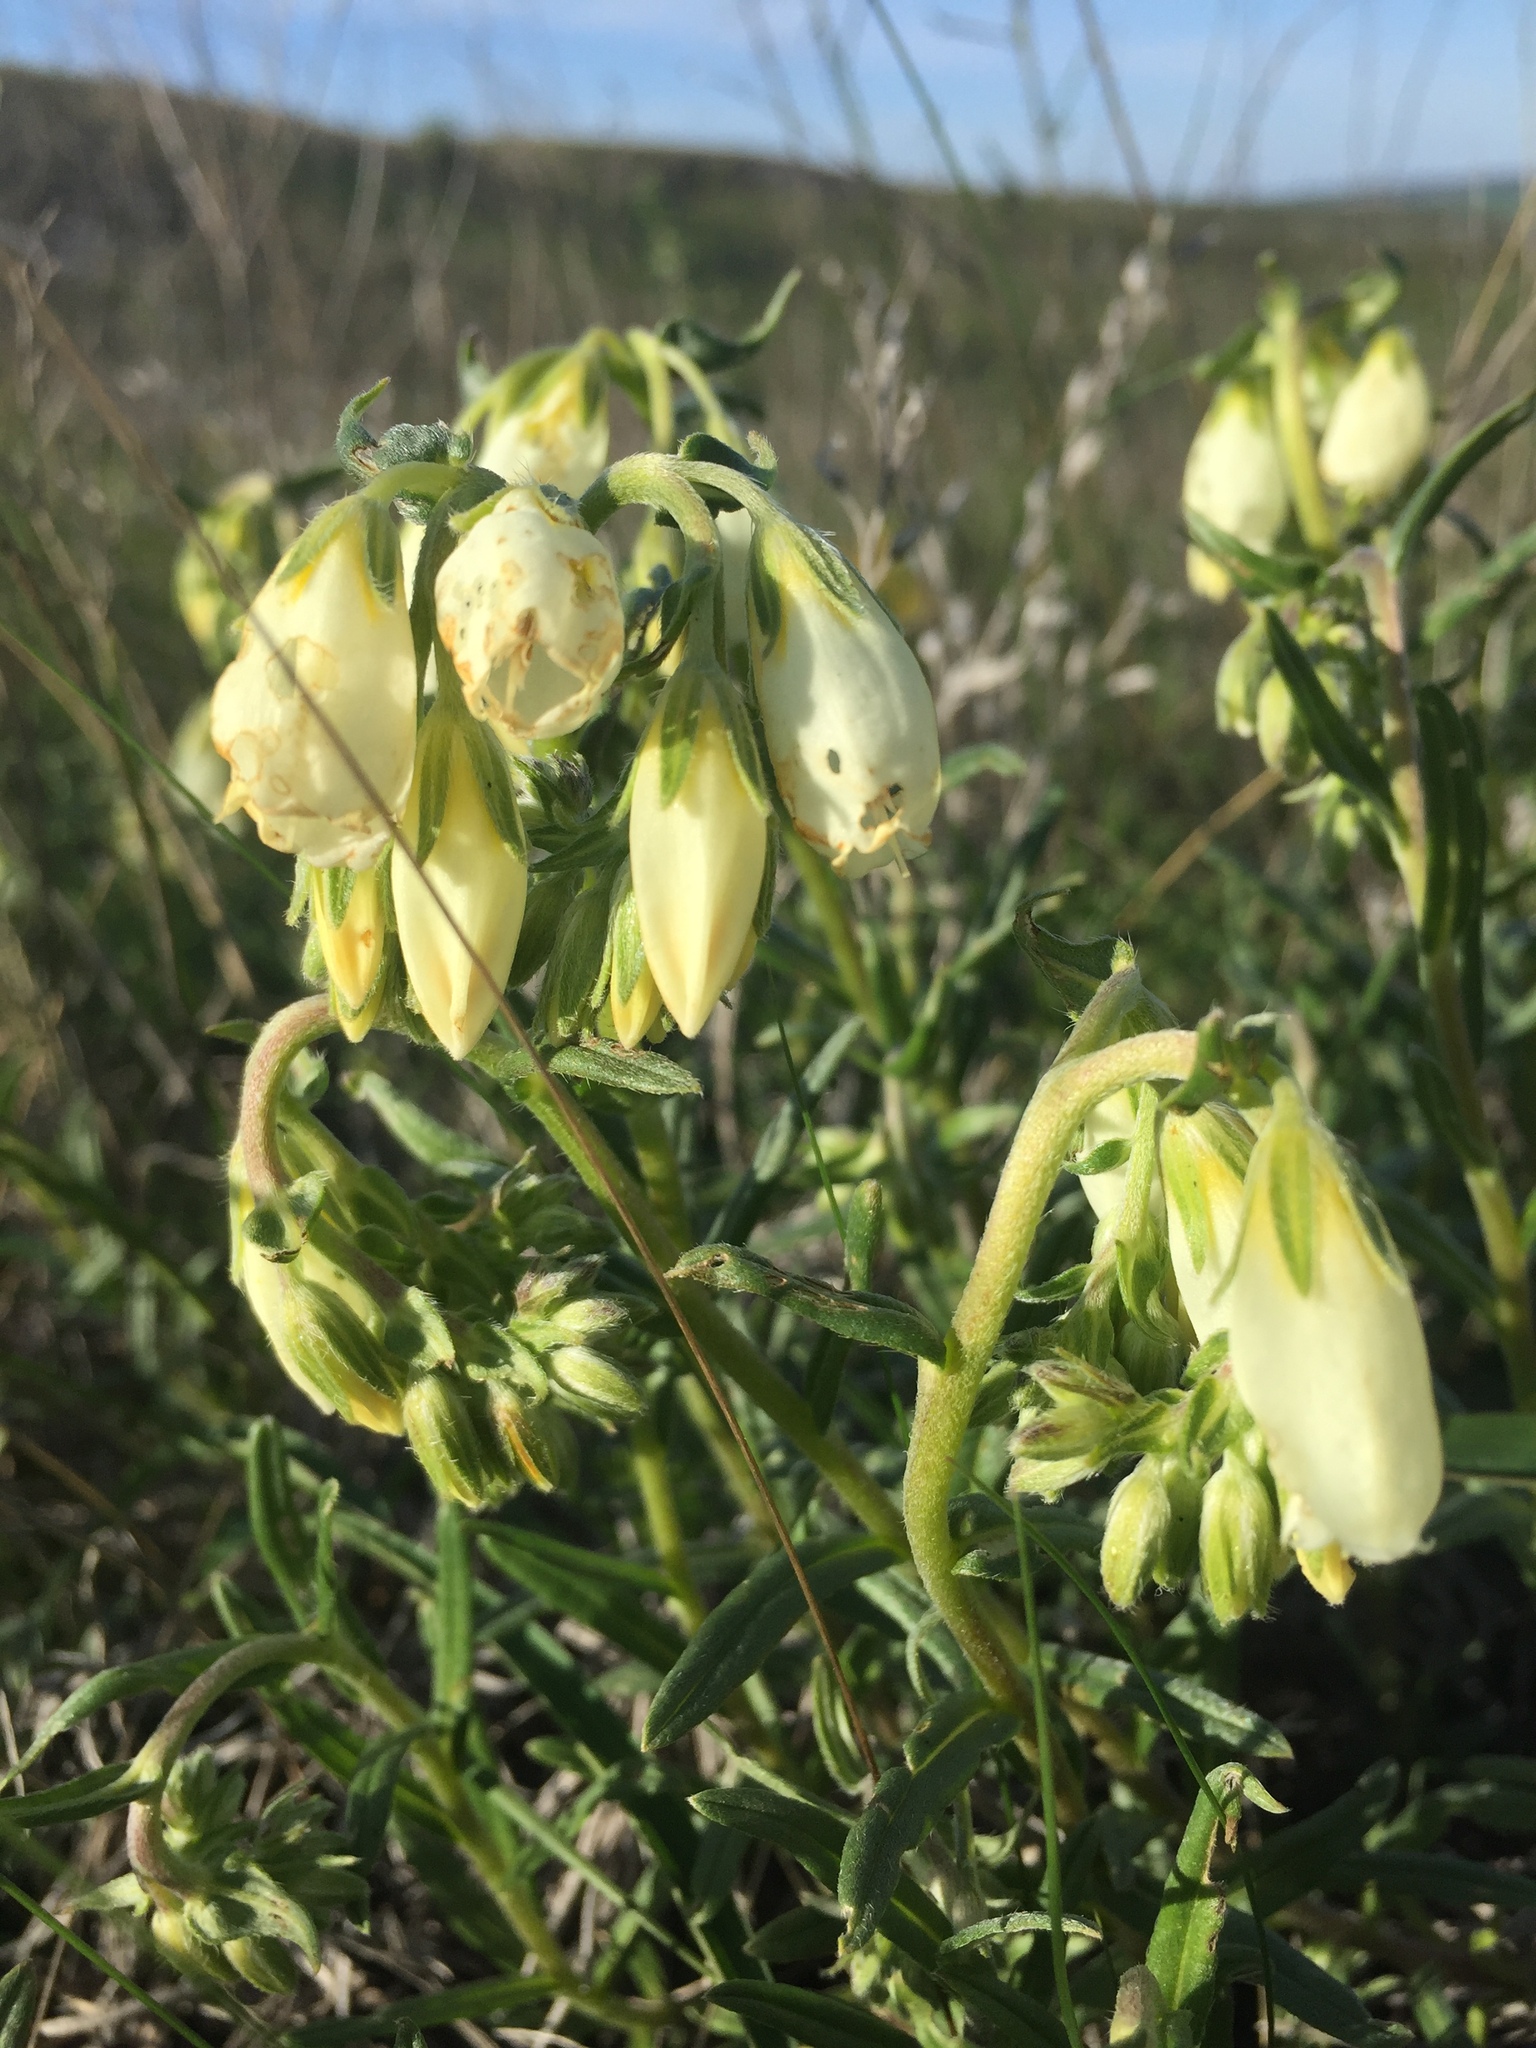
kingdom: Plantae
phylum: Tracheophyta
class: Magnoliopsida
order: Boraginales
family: Boraginaceae
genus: Onosma
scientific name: Onosma simplicissima
